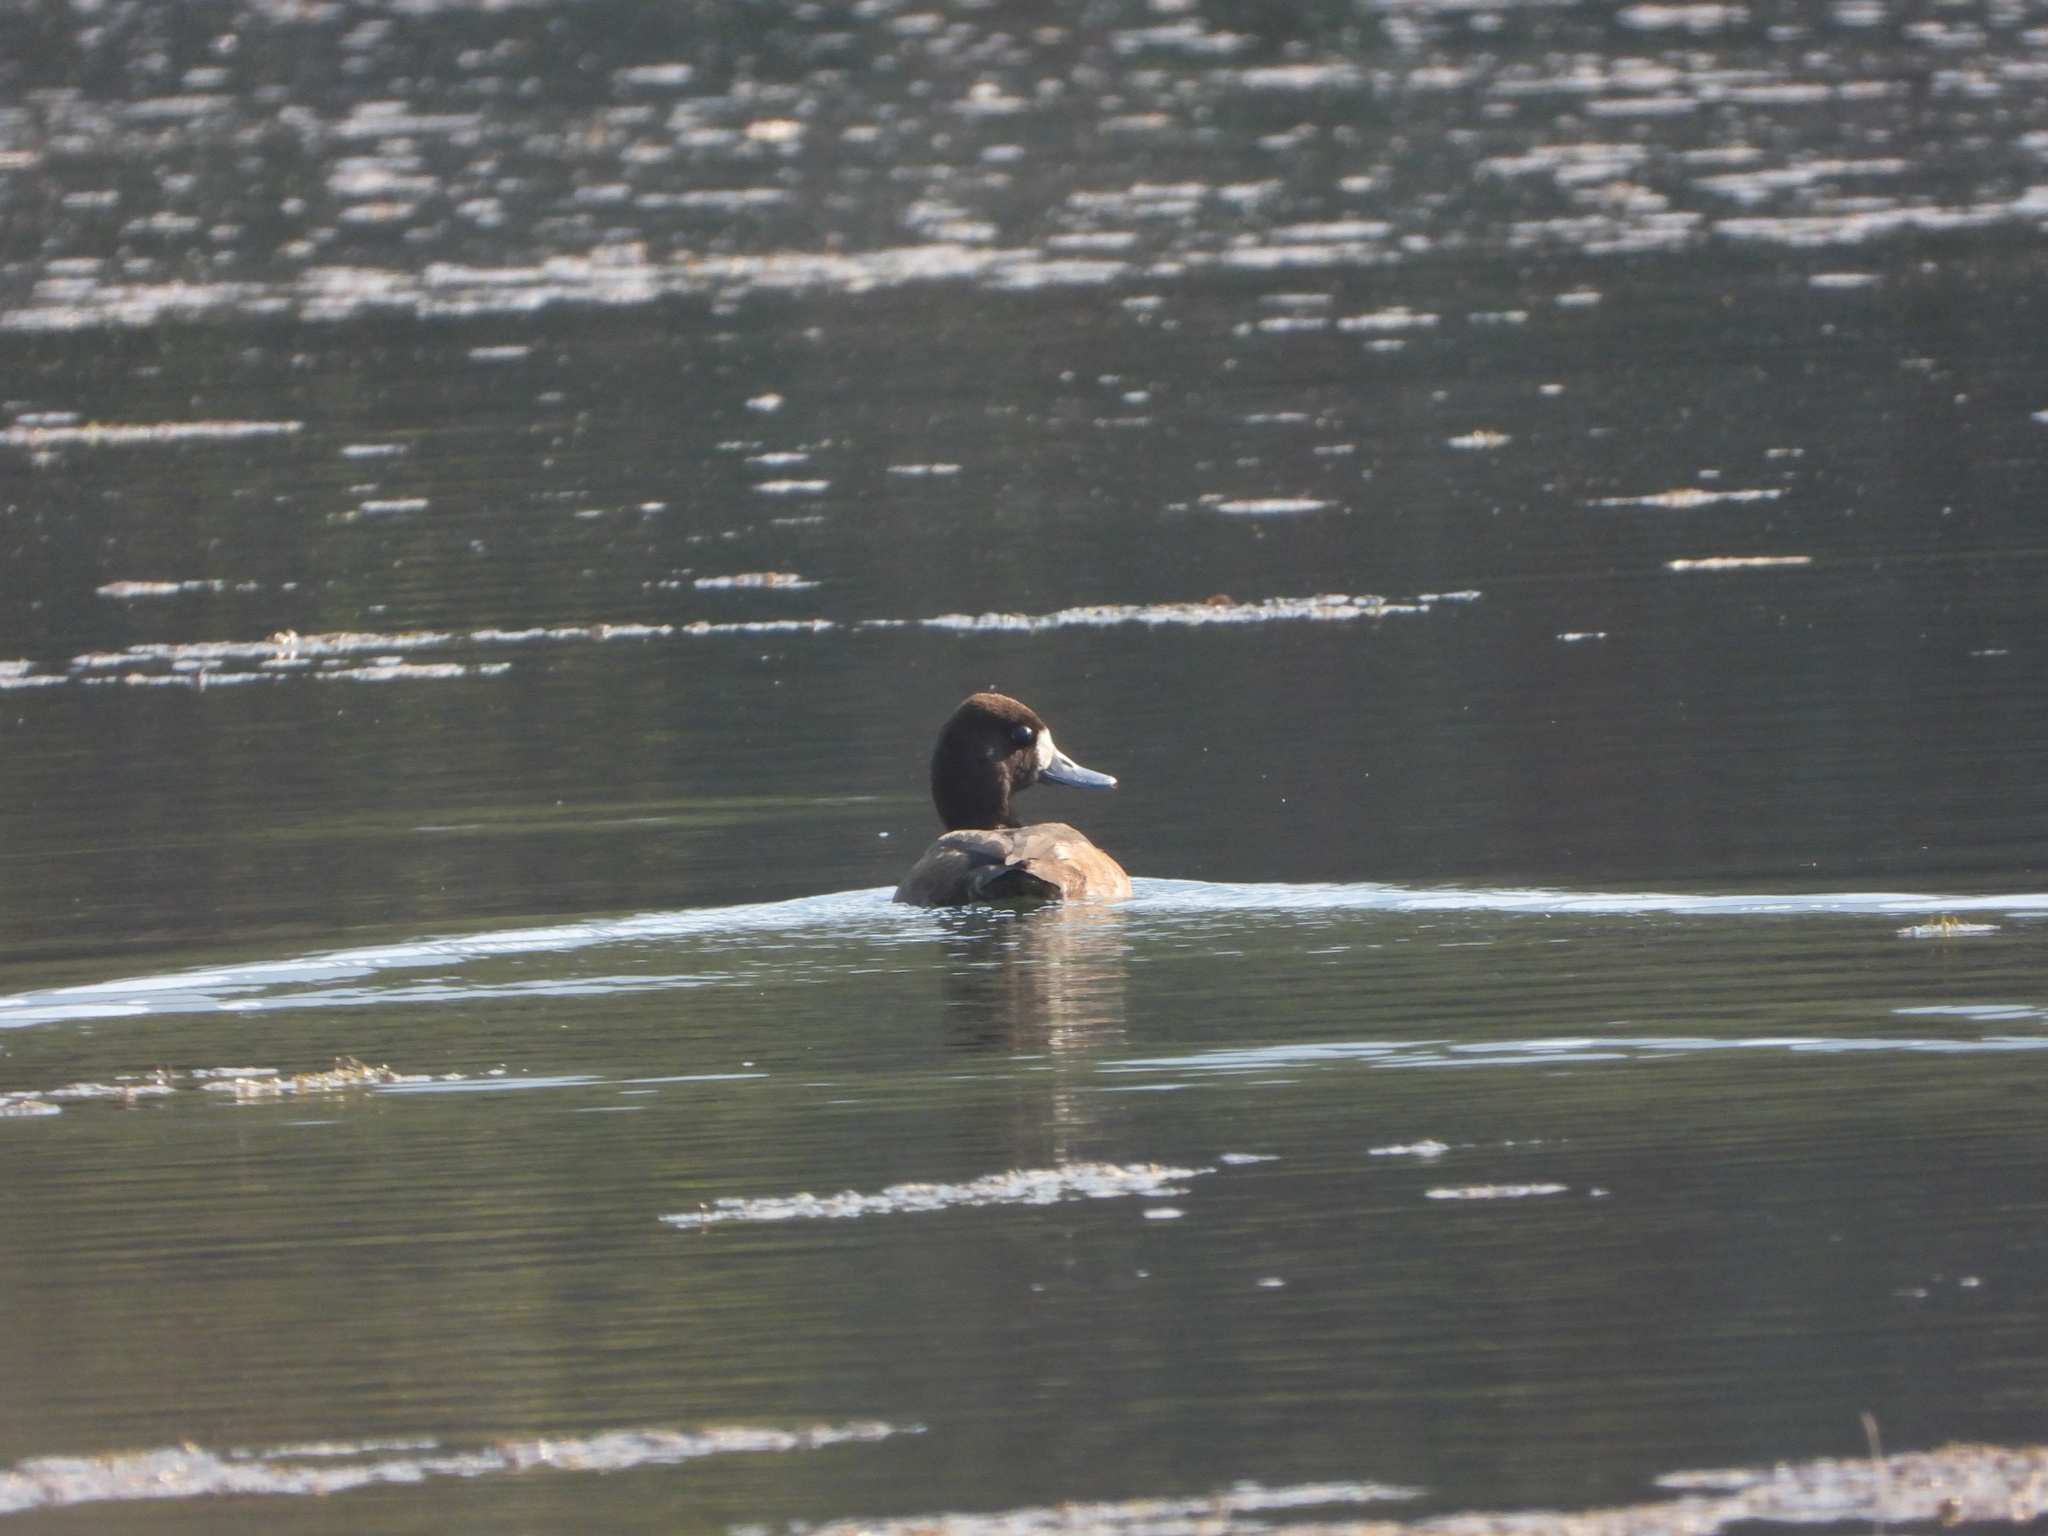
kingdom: Animalia
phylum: Chordata
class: Aves
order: Anseriformes
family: Anatidae
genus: Aythya
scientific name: Aythya affinis
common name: Lesser scaup
